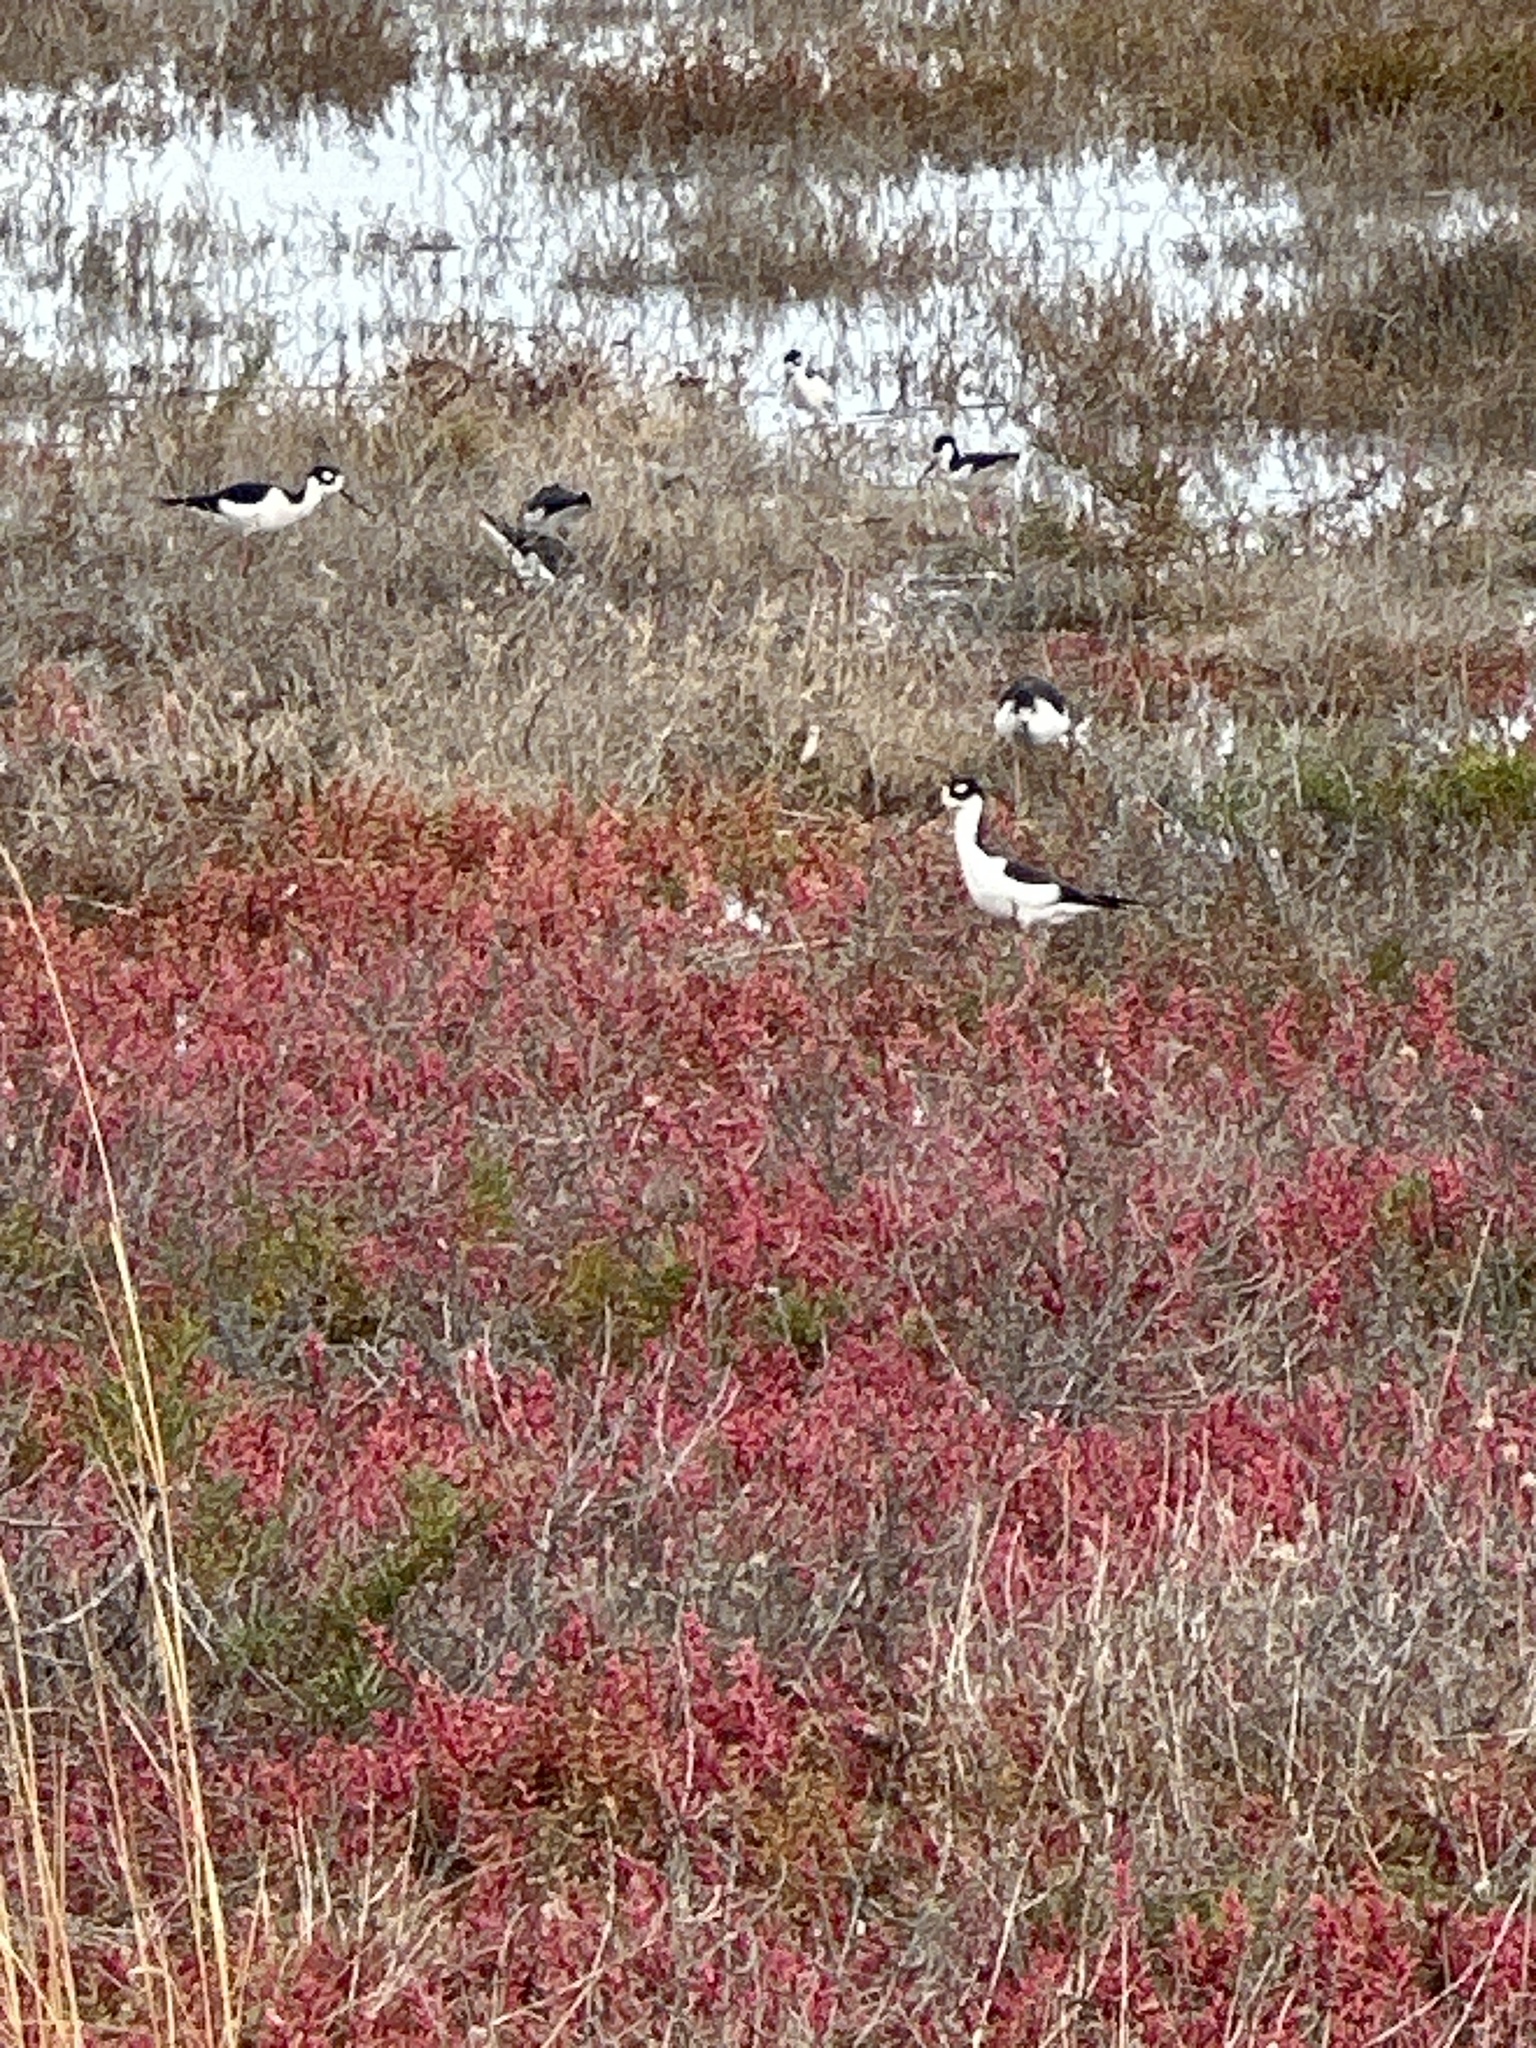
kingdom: Animalia
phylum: Chordata
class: Aves
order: Charadriiformes
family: Recurvirostridae
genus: Himantopus
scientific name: Himantopus mexicanus
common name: Black-necked stilt
